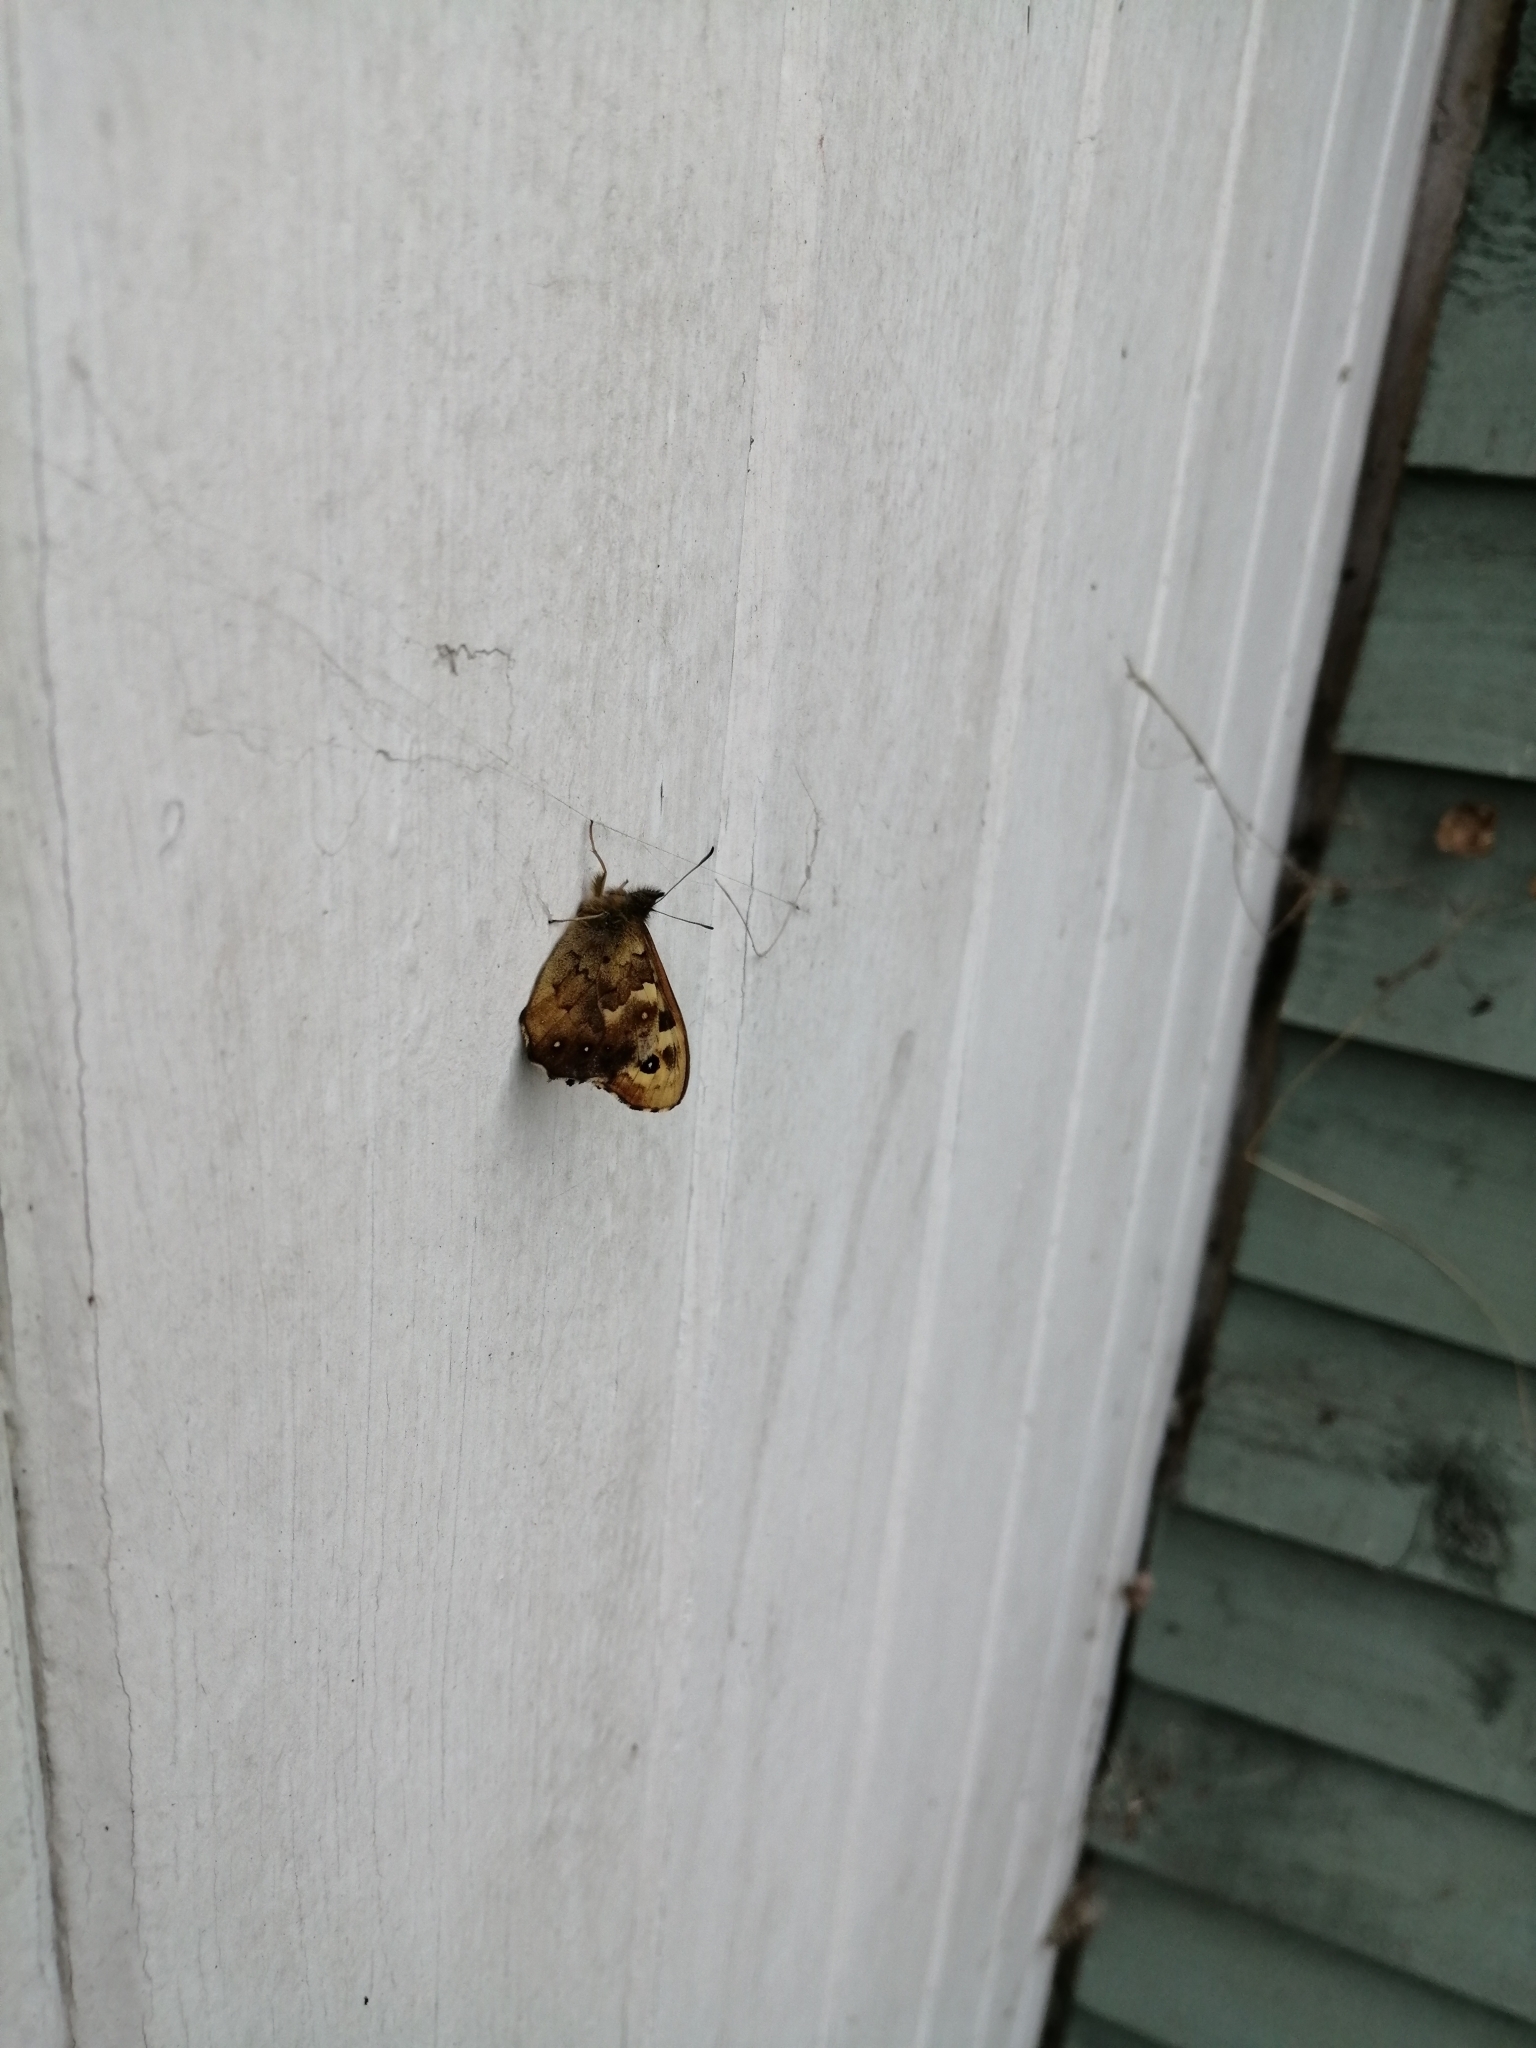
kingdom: Animalia
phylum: Arthropoda
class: Insecta
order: Lepidoptera
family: Nymphalidae
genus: Pararge
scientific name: Pararge aegeria
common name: Speckled wood
